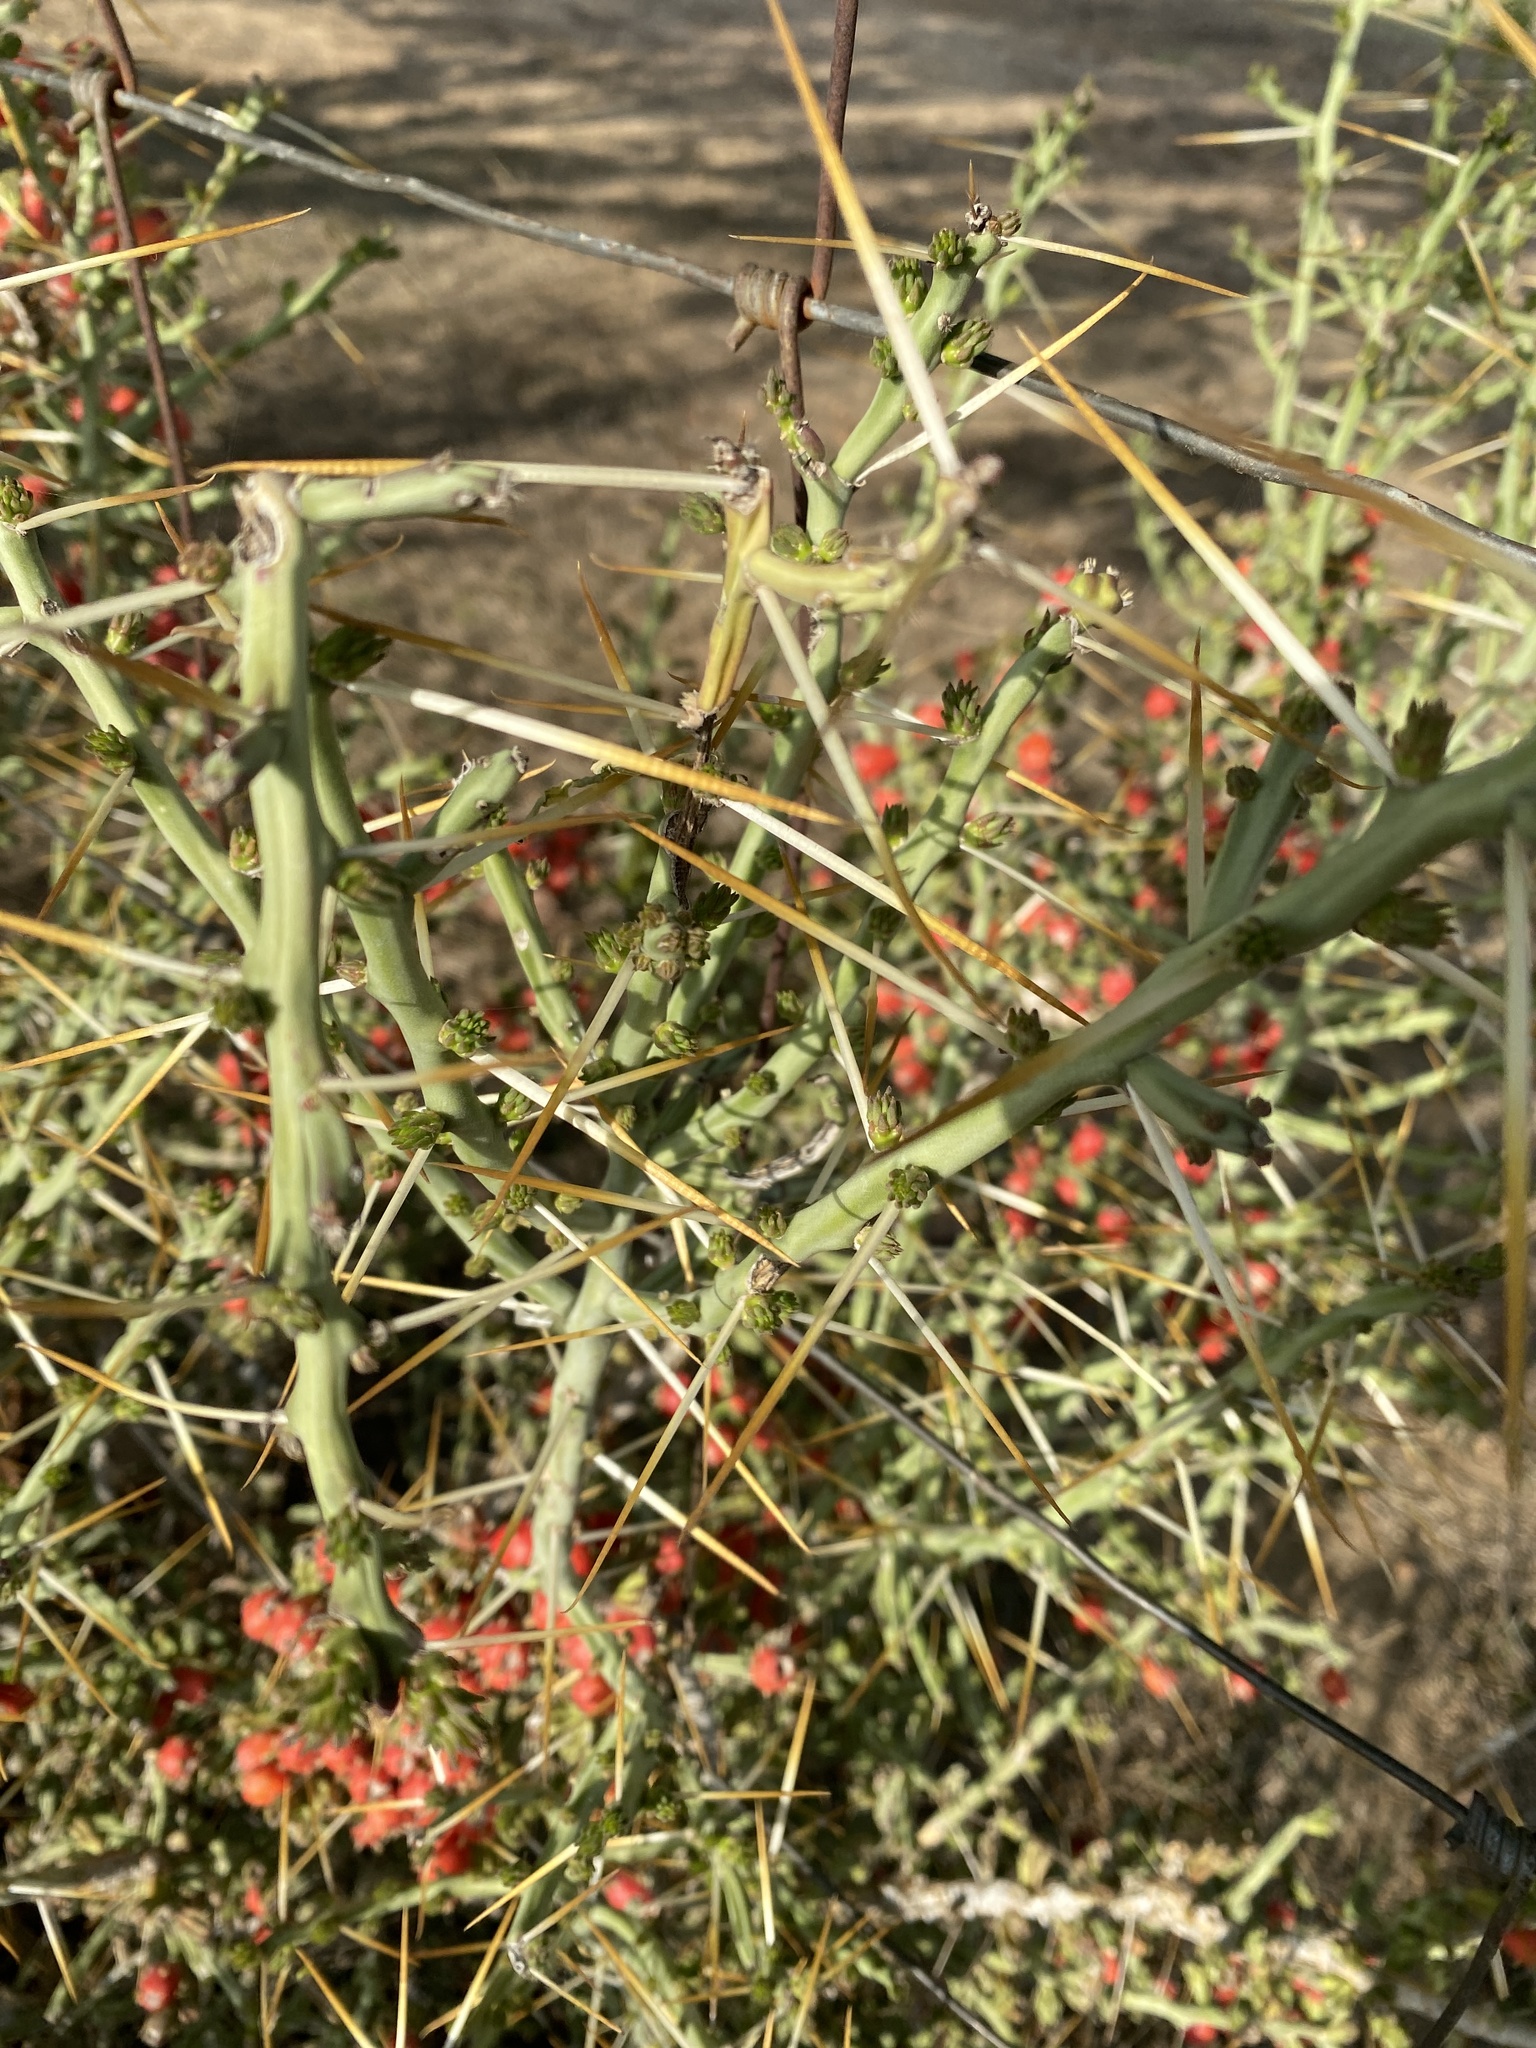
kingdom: Plantae
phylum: Tracheophyta
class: Magnoliopsida
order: Caryophyllales
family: Cactaceae
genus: Cylindropuntia
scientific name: Cylindropuntia leptocaulis
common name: Christmas cactus
